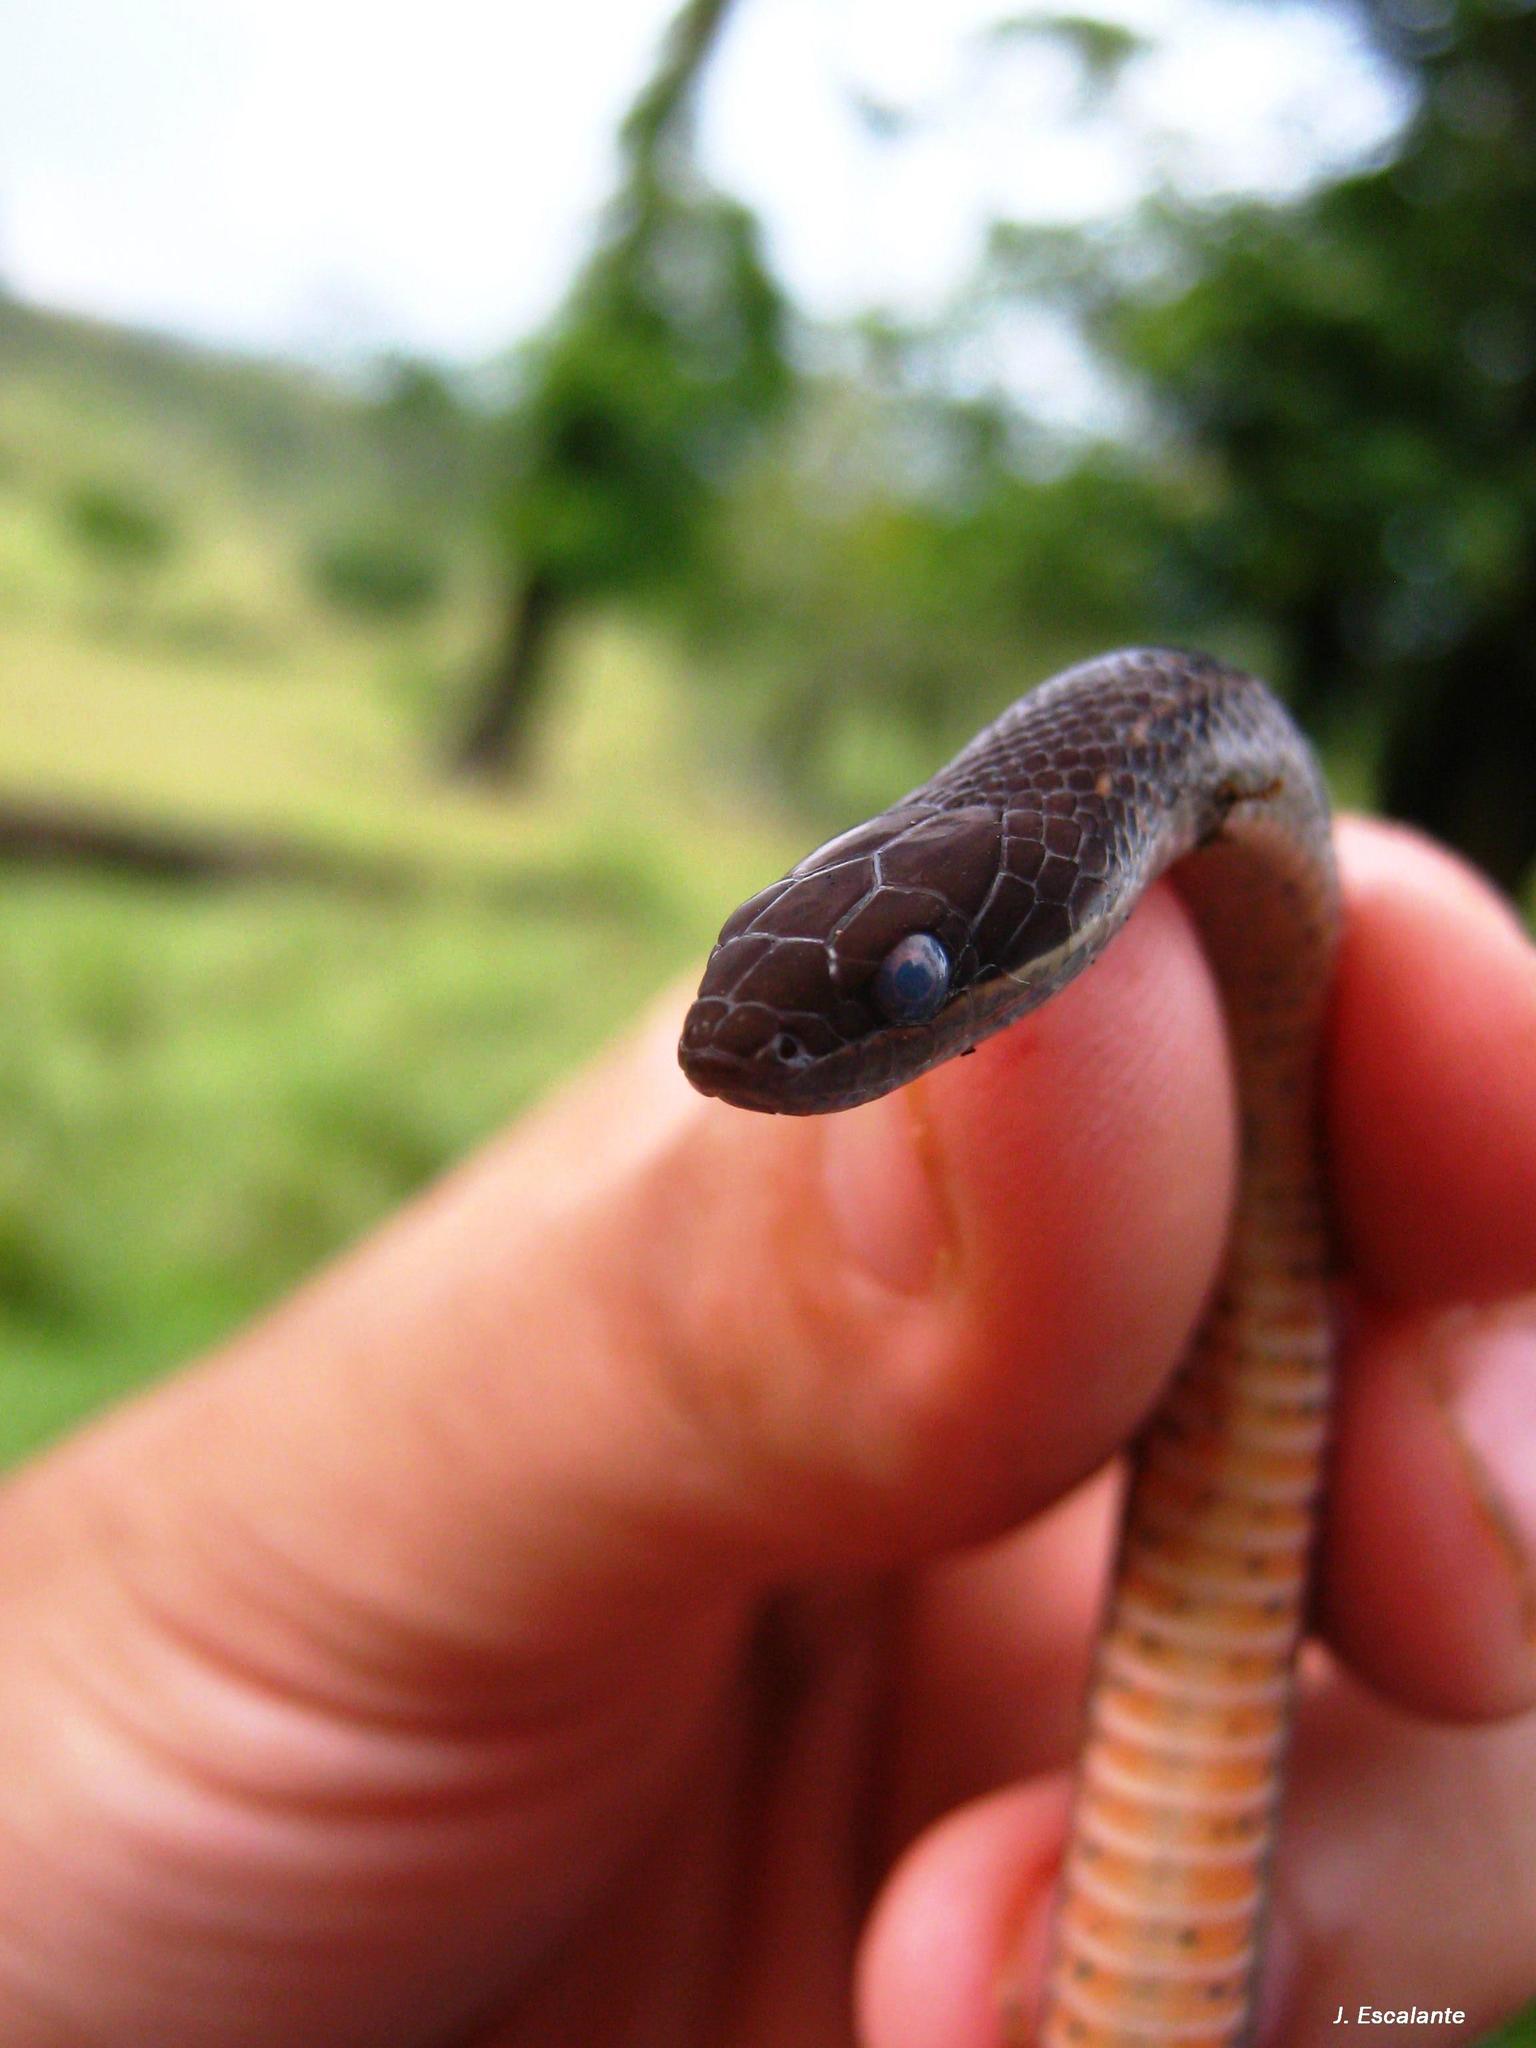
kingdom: Animalia
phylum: Chordata
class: Squamata
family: Colubridae
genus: Coniophanes
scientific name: Coniophanes fissidens
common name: Yellowbelly snake
